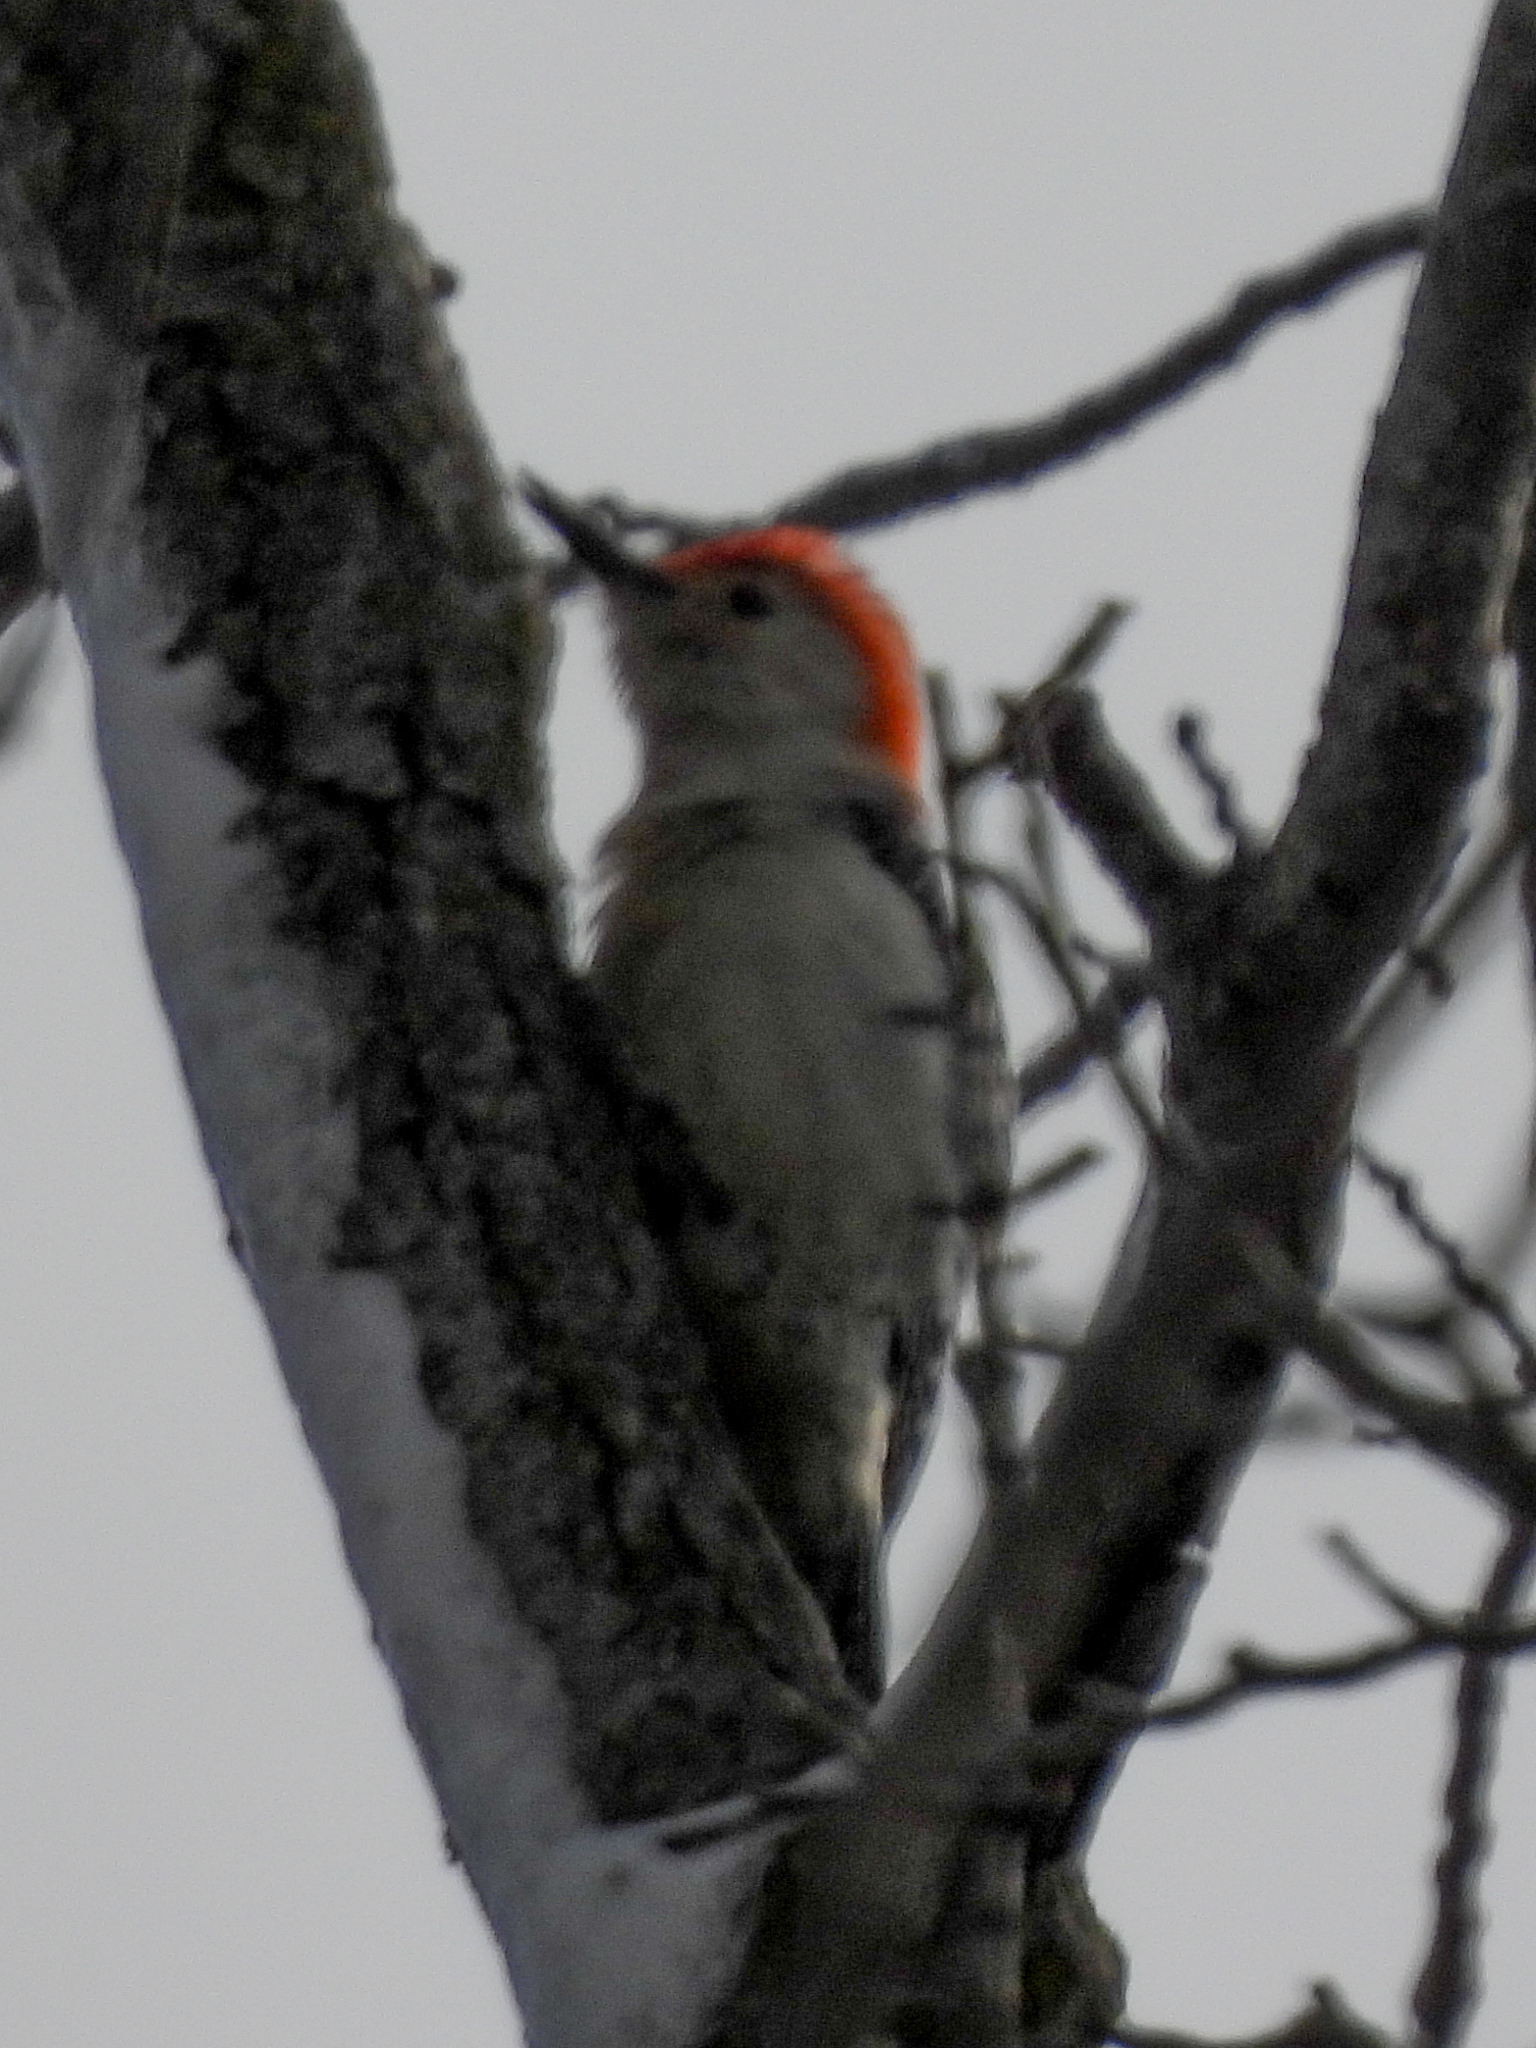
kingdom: Animalia
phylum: Chordata
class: Aves
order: Piciformes
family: Picidae
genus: Melanerpes
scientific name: Melanerpes carolinus
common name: Red-bellied woodpecker
